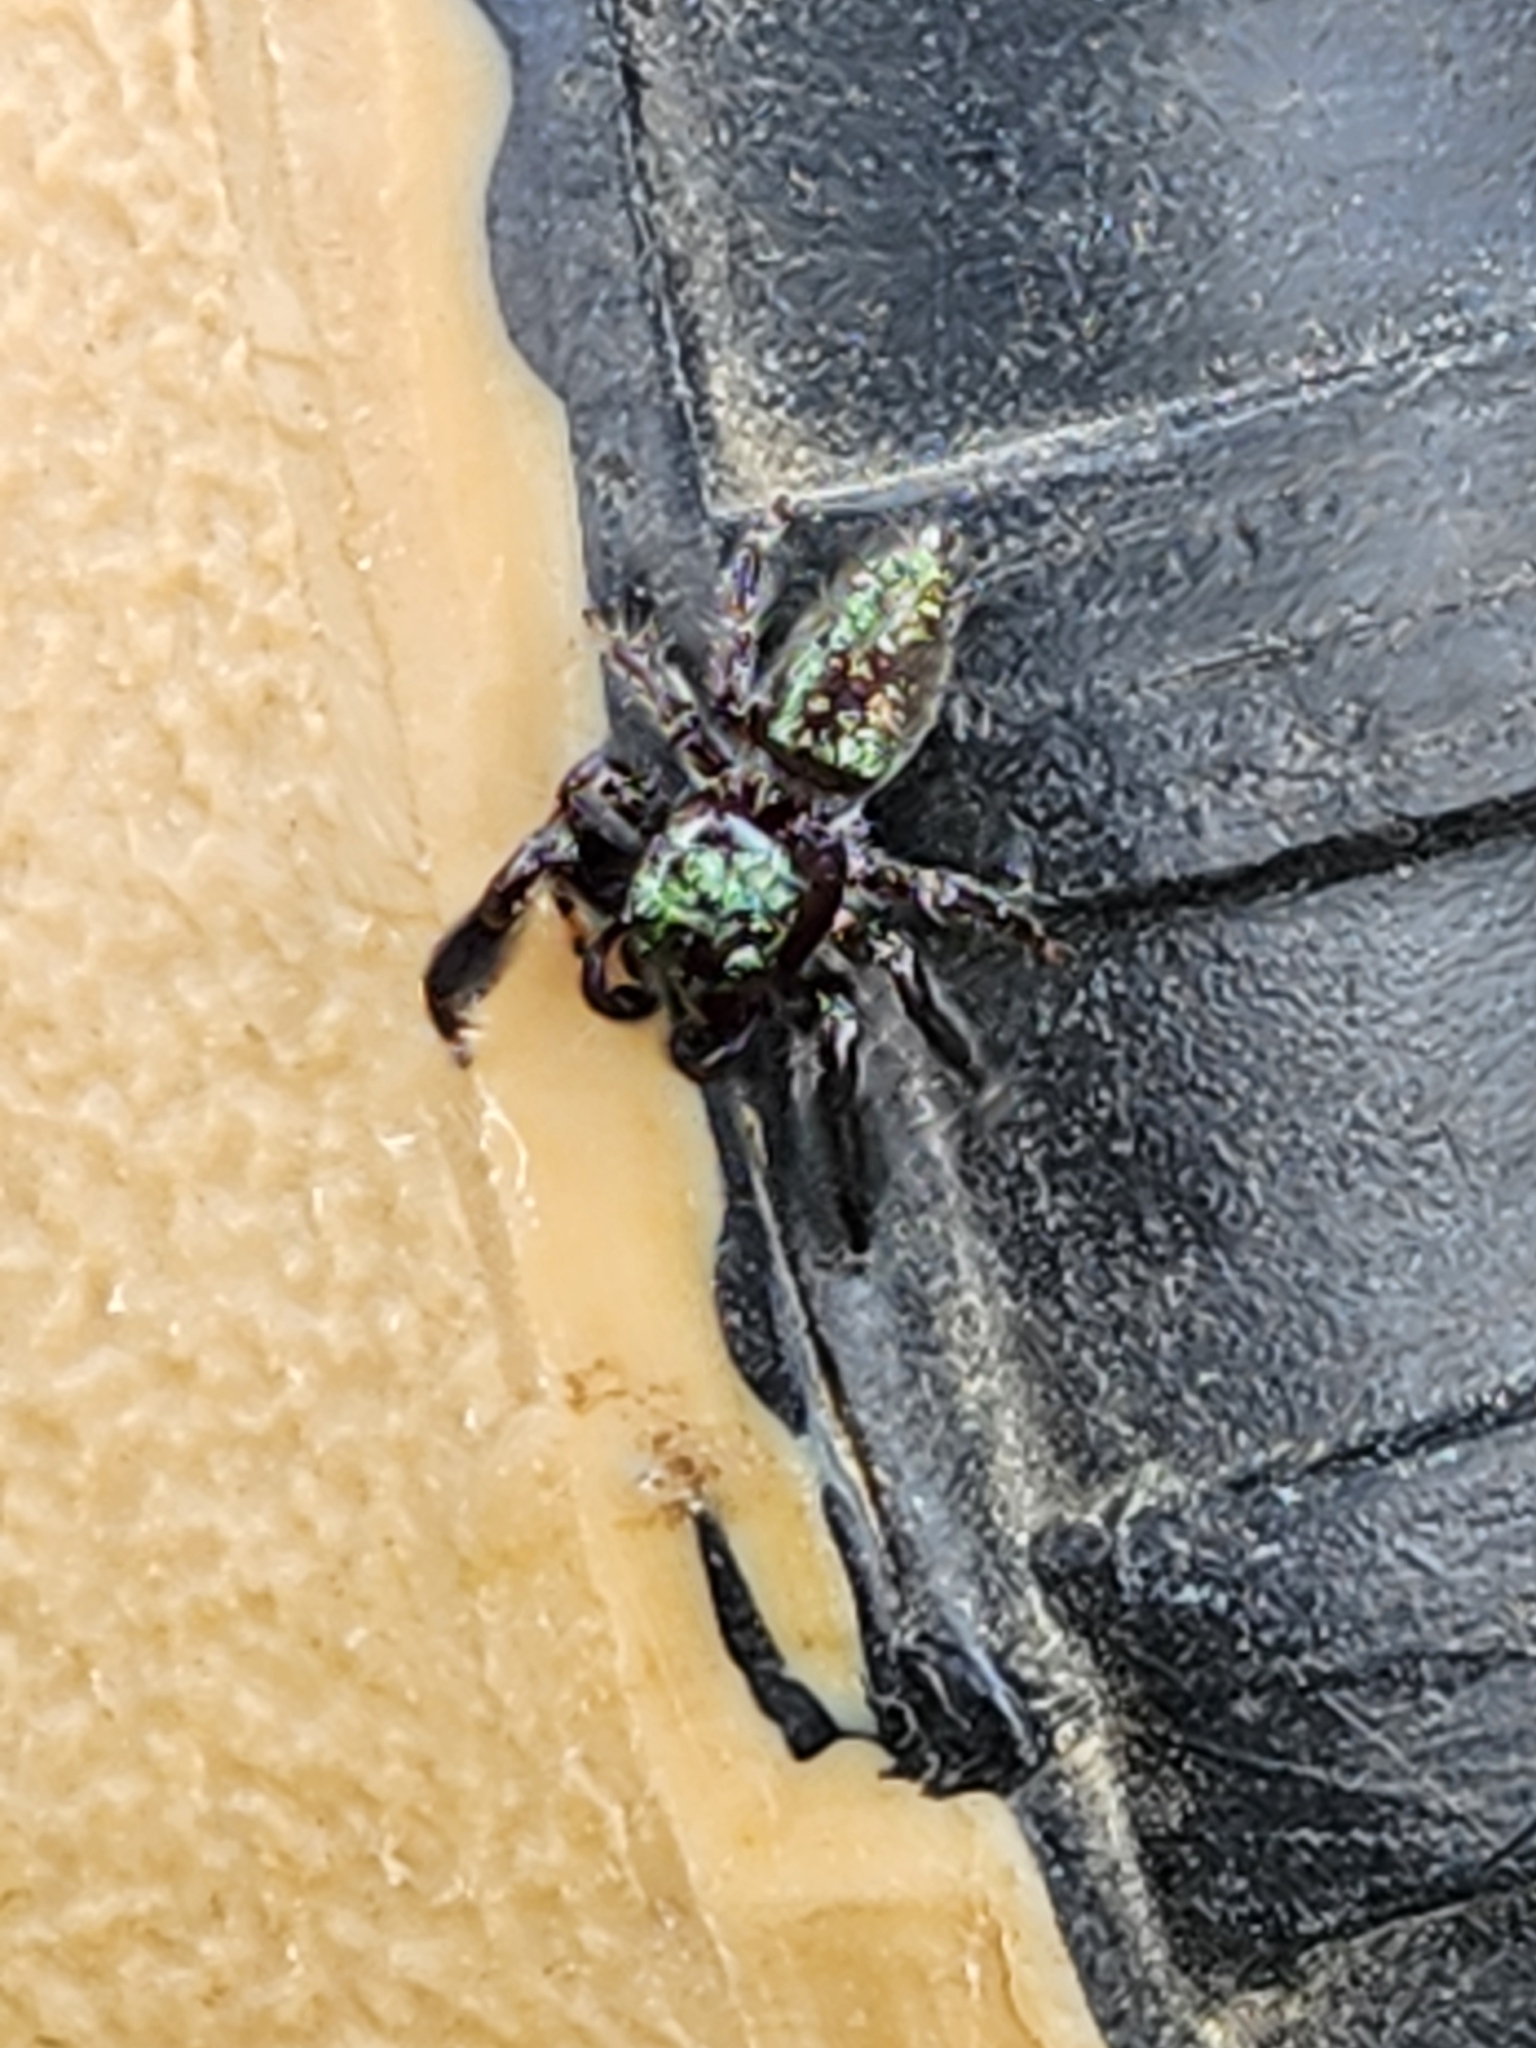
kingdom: Animalia
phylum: Arthropoda
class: Arachnida
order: Araneae
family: Salticidae
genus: Paraphidippus
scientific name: Paraphidippus fartilis
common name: Jumping spiders
